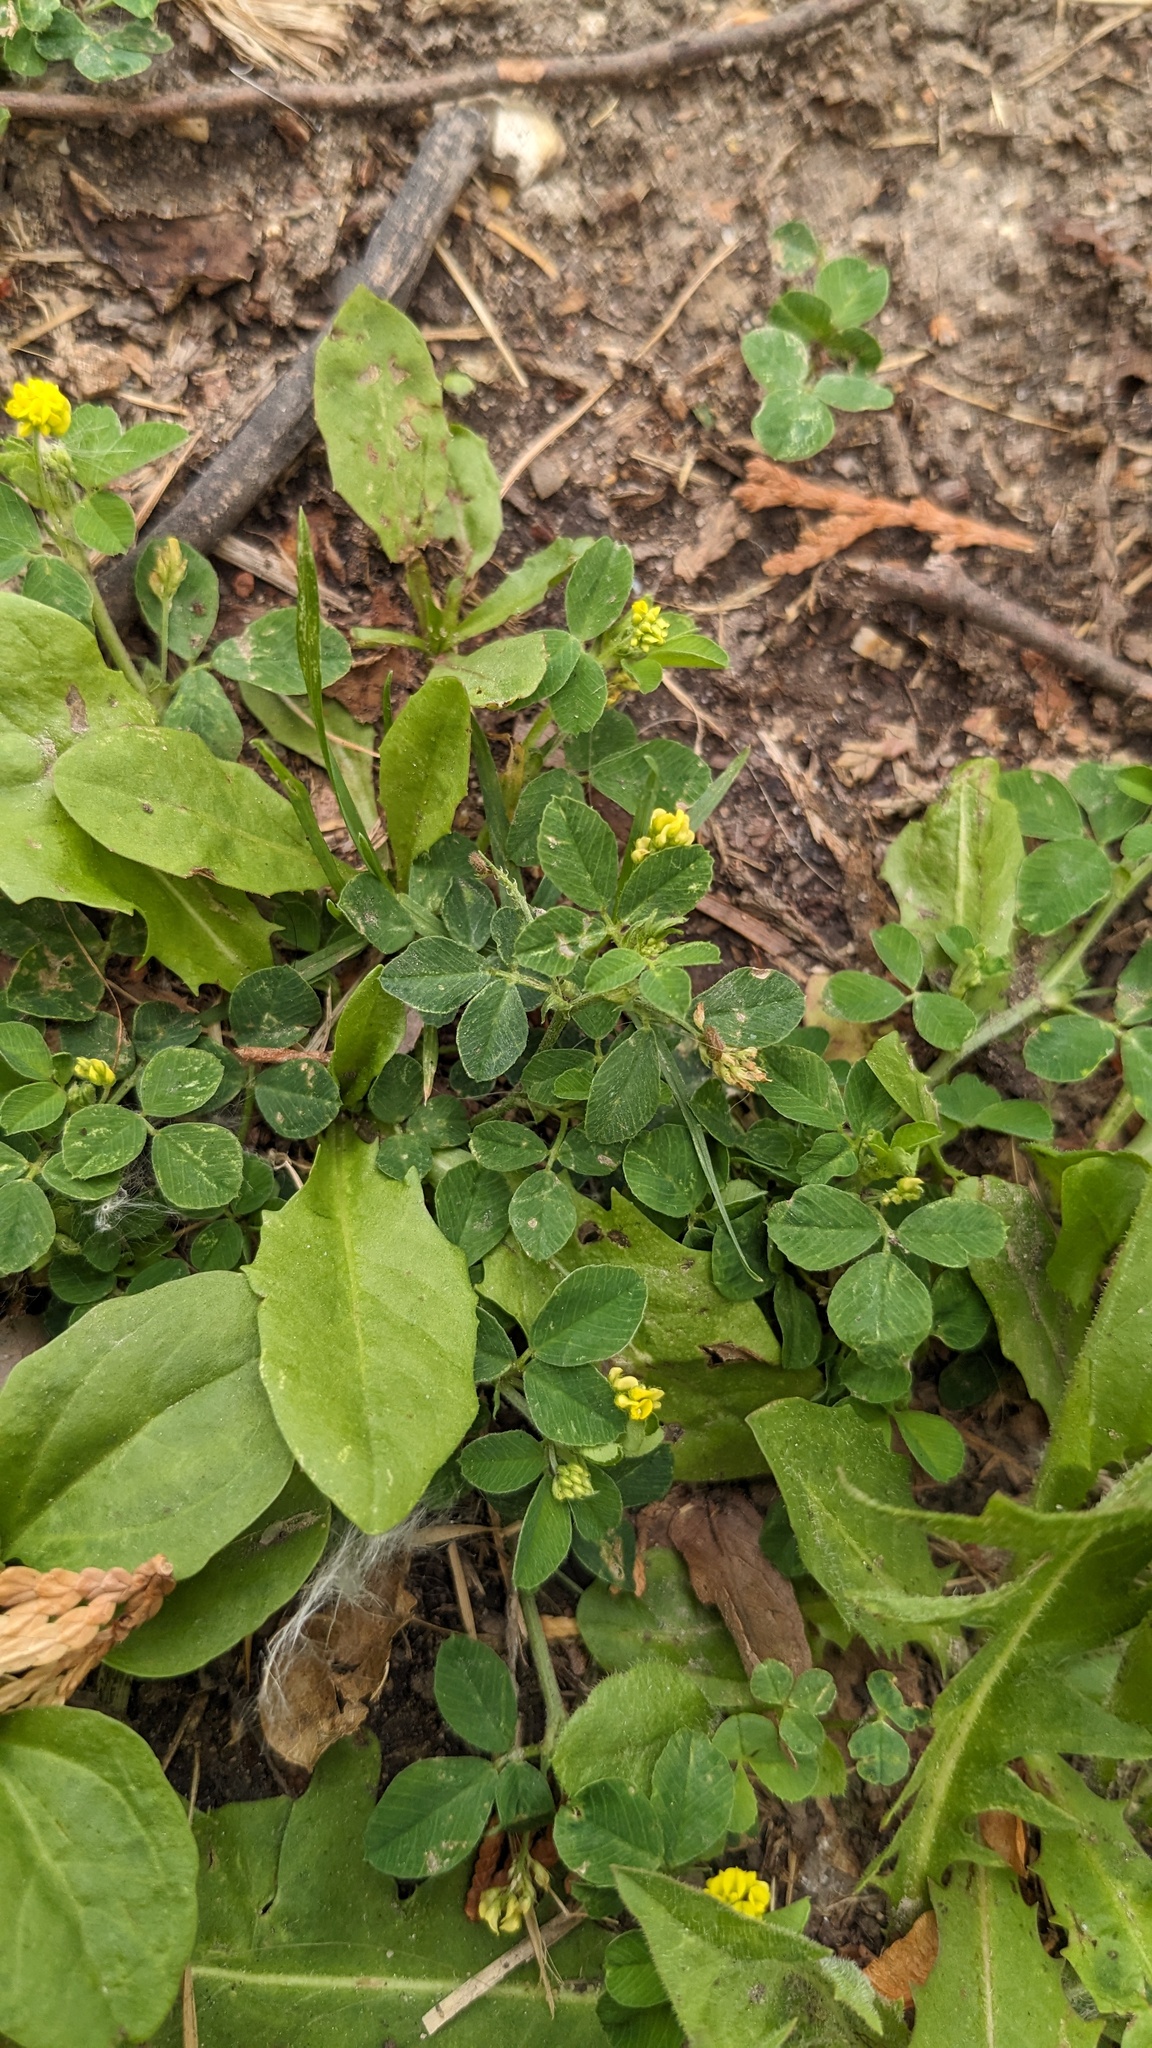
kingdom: Plantae
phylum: Tracheophyta
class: Magnoliopsida
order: Fabales
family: Fabaceae
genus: Medicago
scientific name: Medicago lupulina
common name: Black medick
